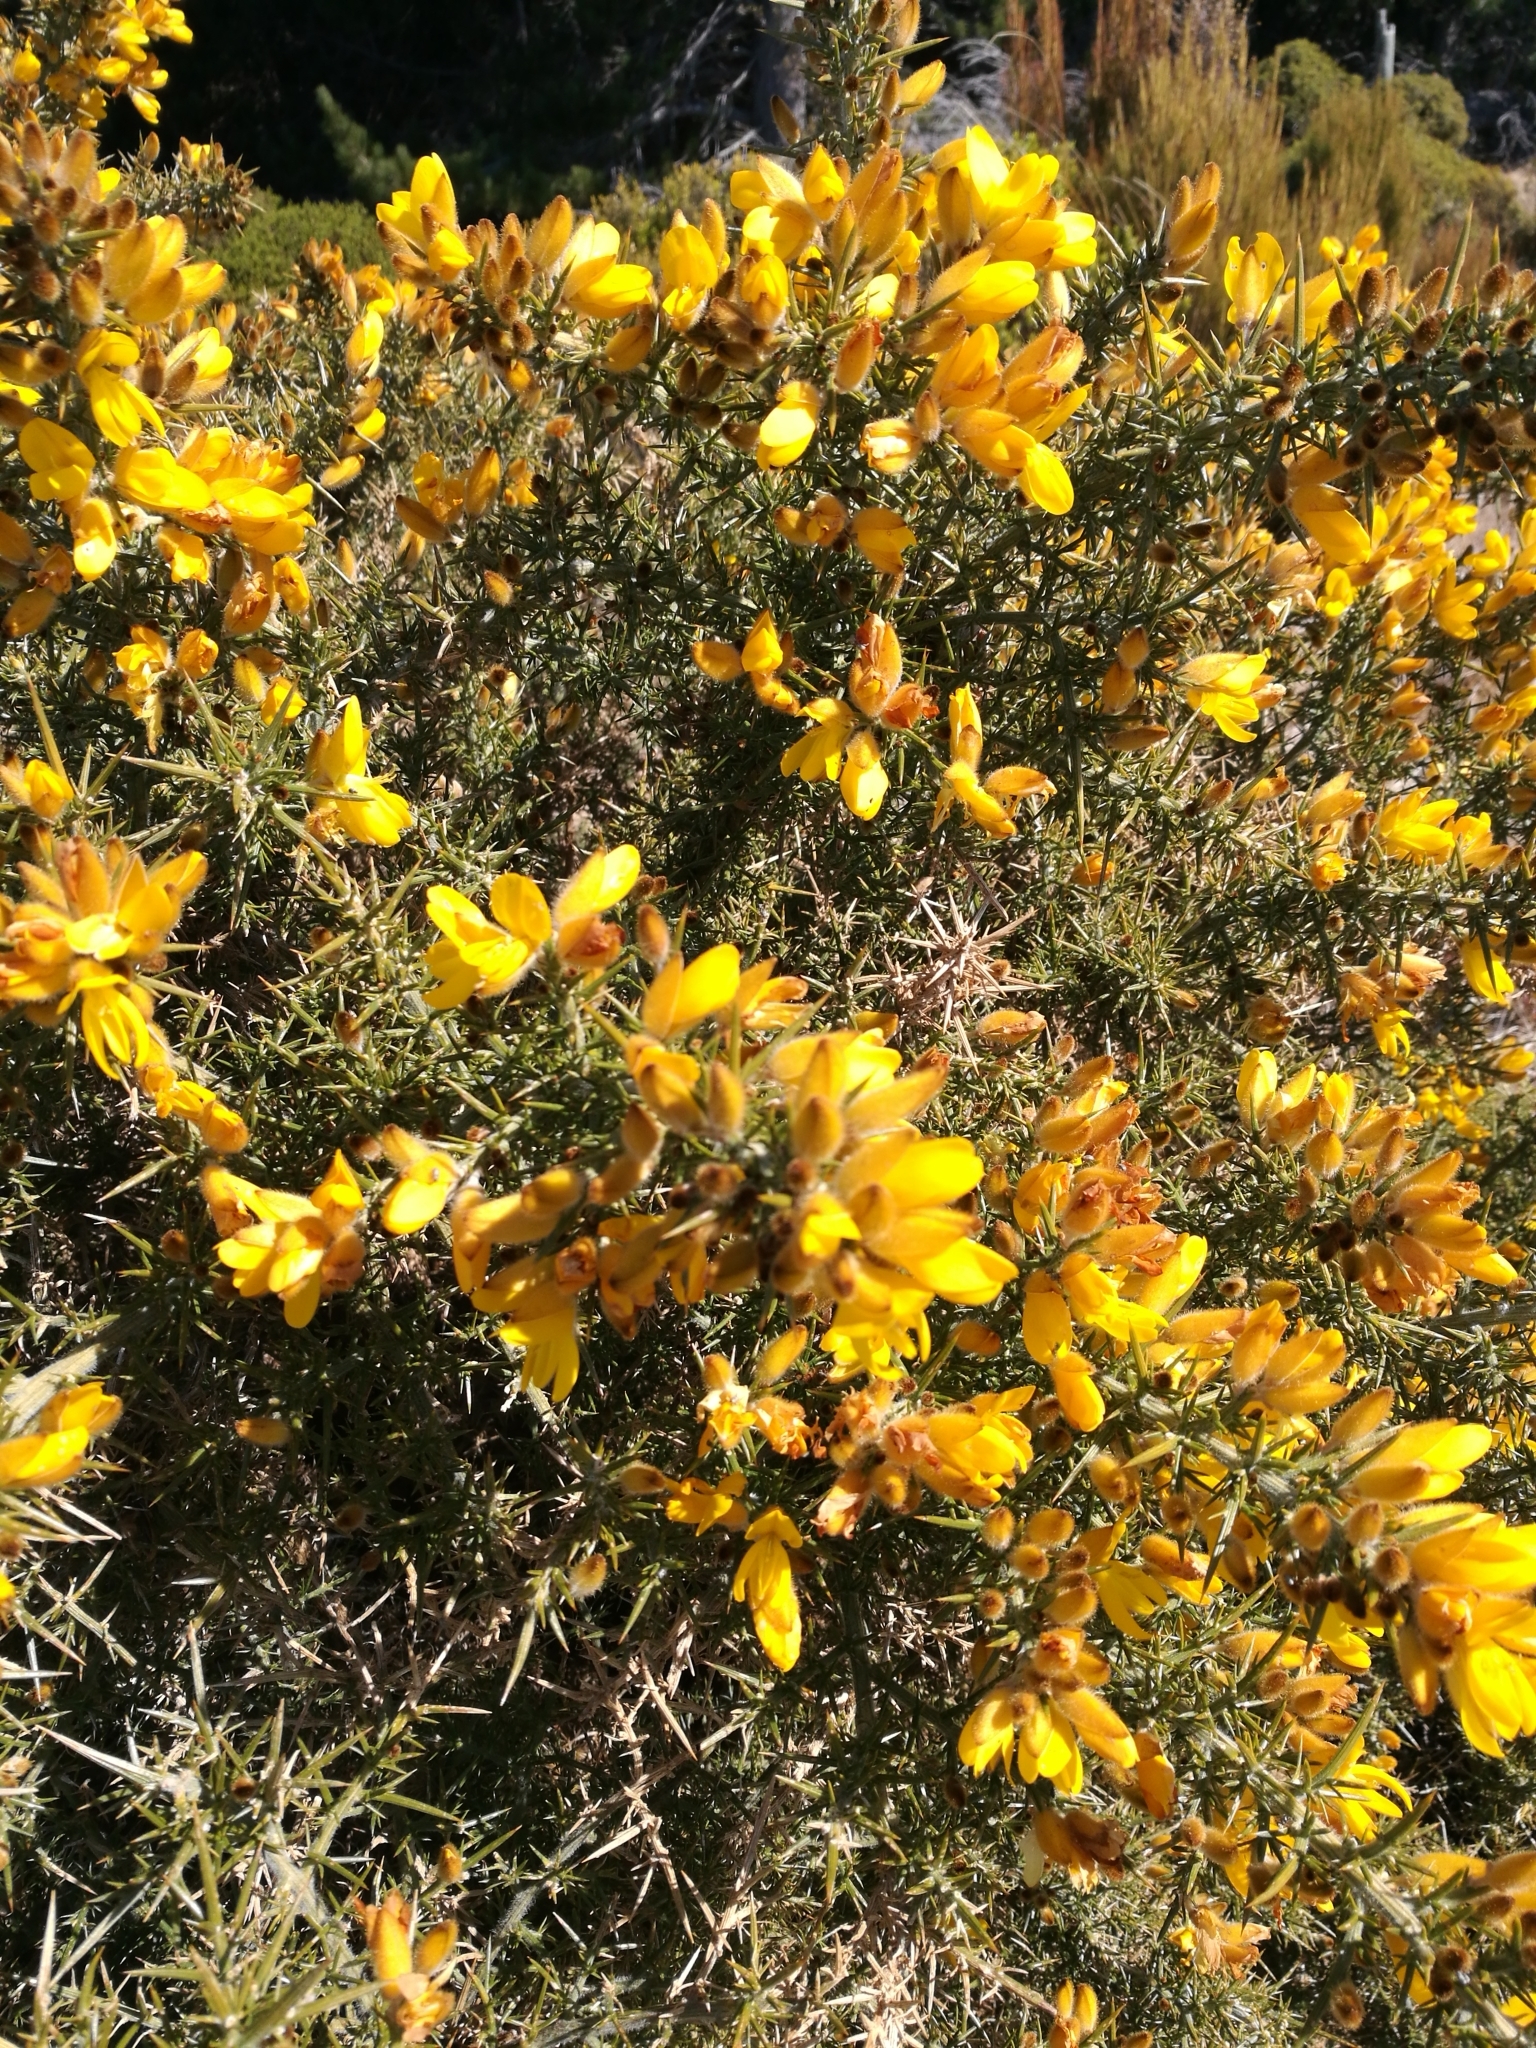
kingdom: Plantae
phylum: Tracheophyta
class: Magnoliopsida
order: Fabales
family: Fabaceae
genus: Ulex
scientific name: Ulex europaeus
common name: Common gorse
